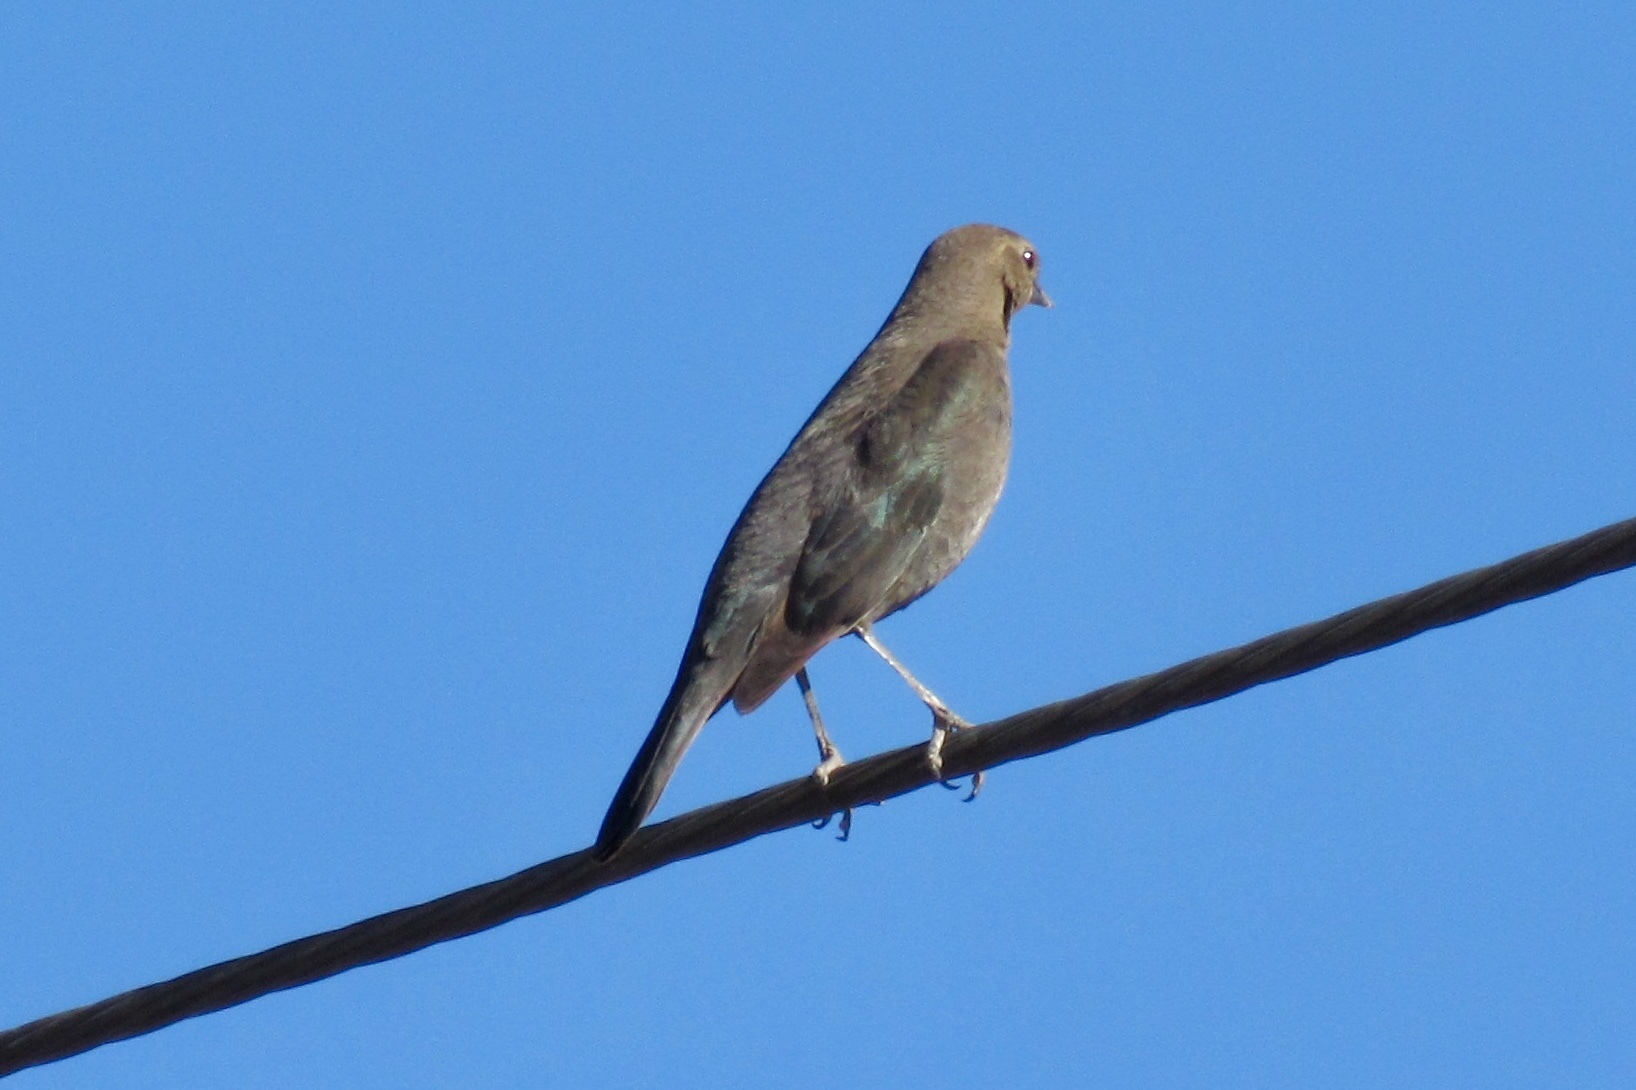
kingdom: Animalia
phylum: Chordata
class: Aves
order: Passeriformes
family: Icteridae
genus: Euphagus
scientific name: Euphagus cyanocephalus
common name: Brewer's blackbird
